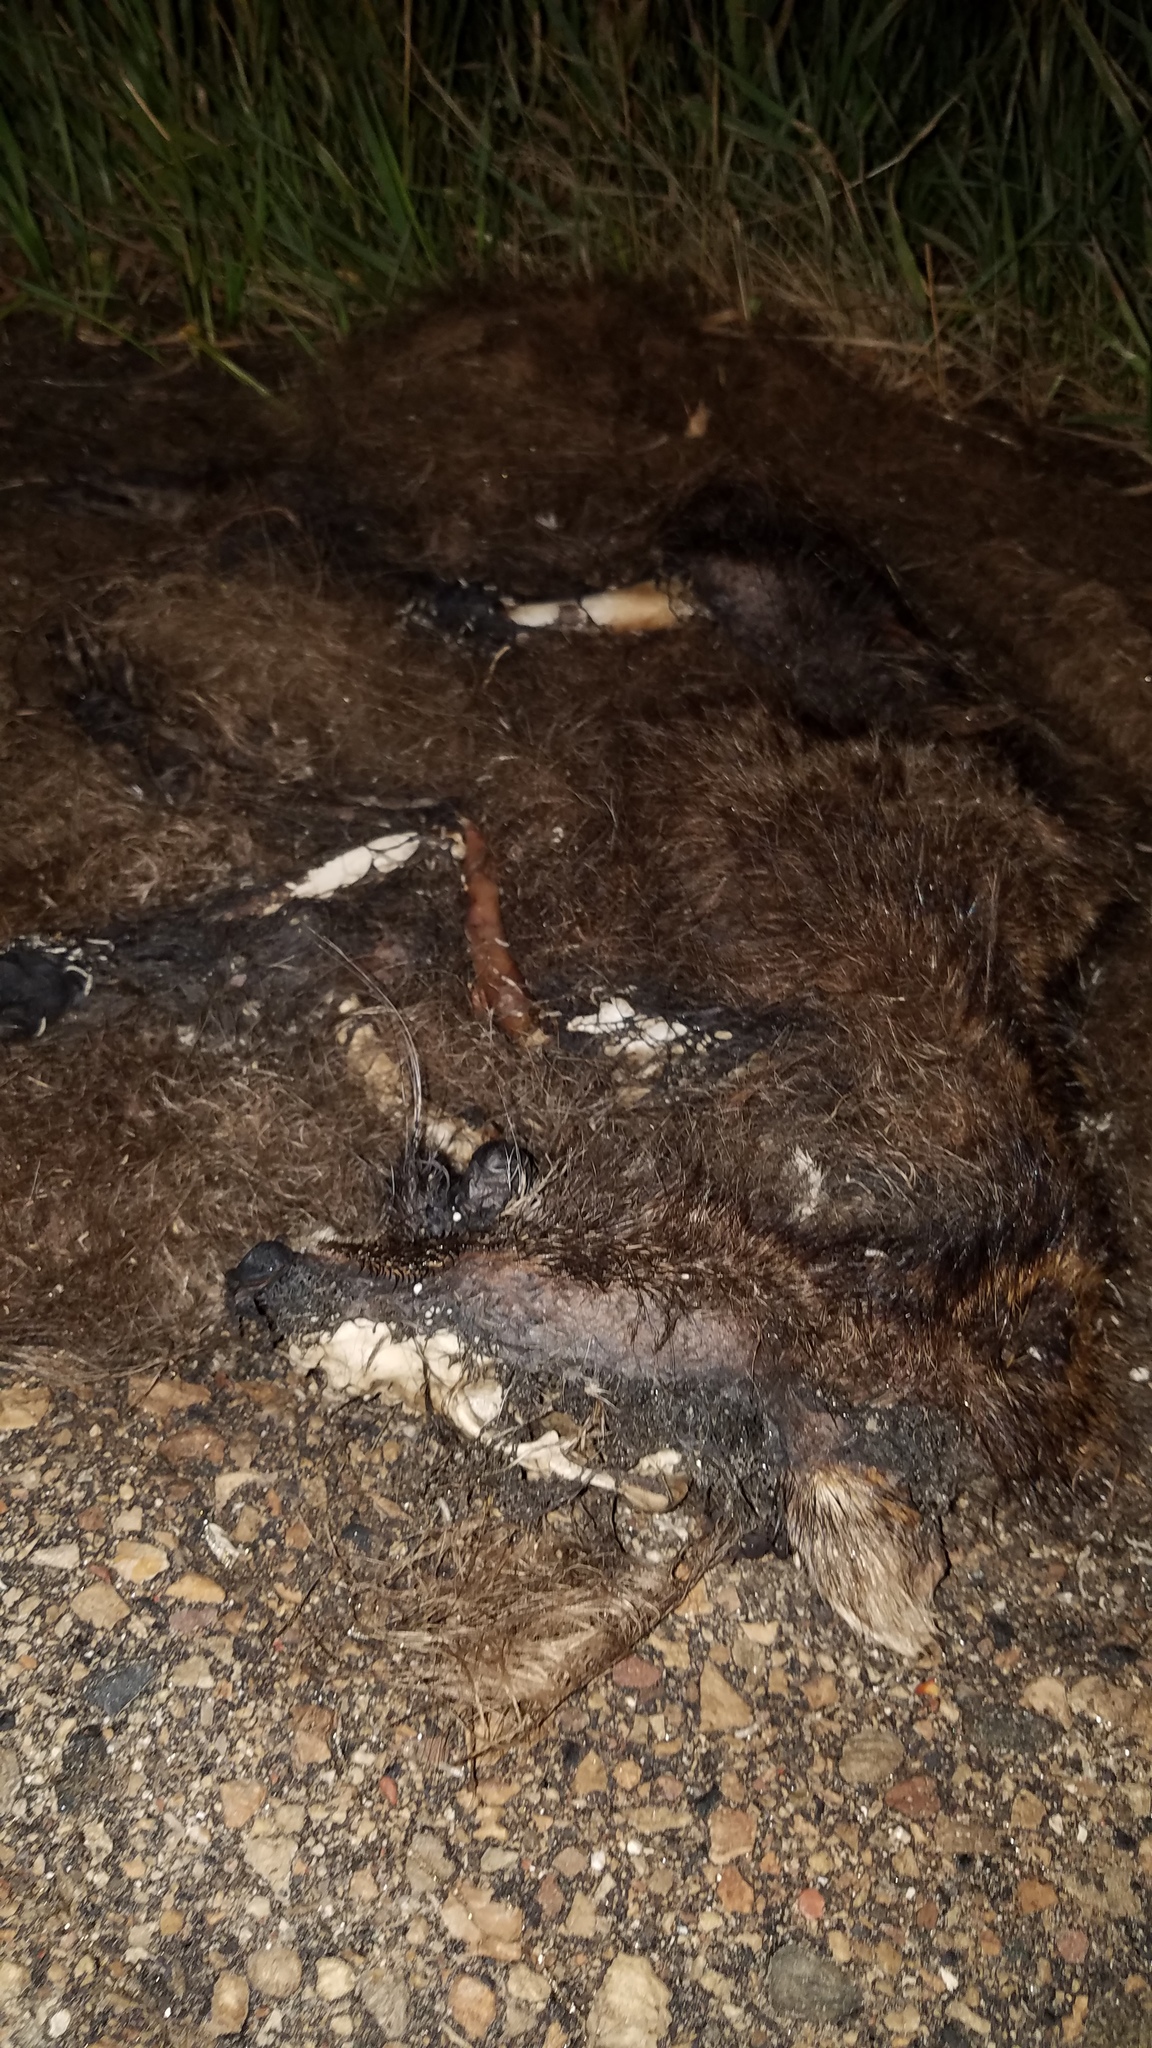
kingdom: Animalia
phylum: Chordata
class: Mammalia
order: Carnivora
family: Procyonidae
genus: Procyon
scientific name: Procyon lotor
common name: Raccoon
